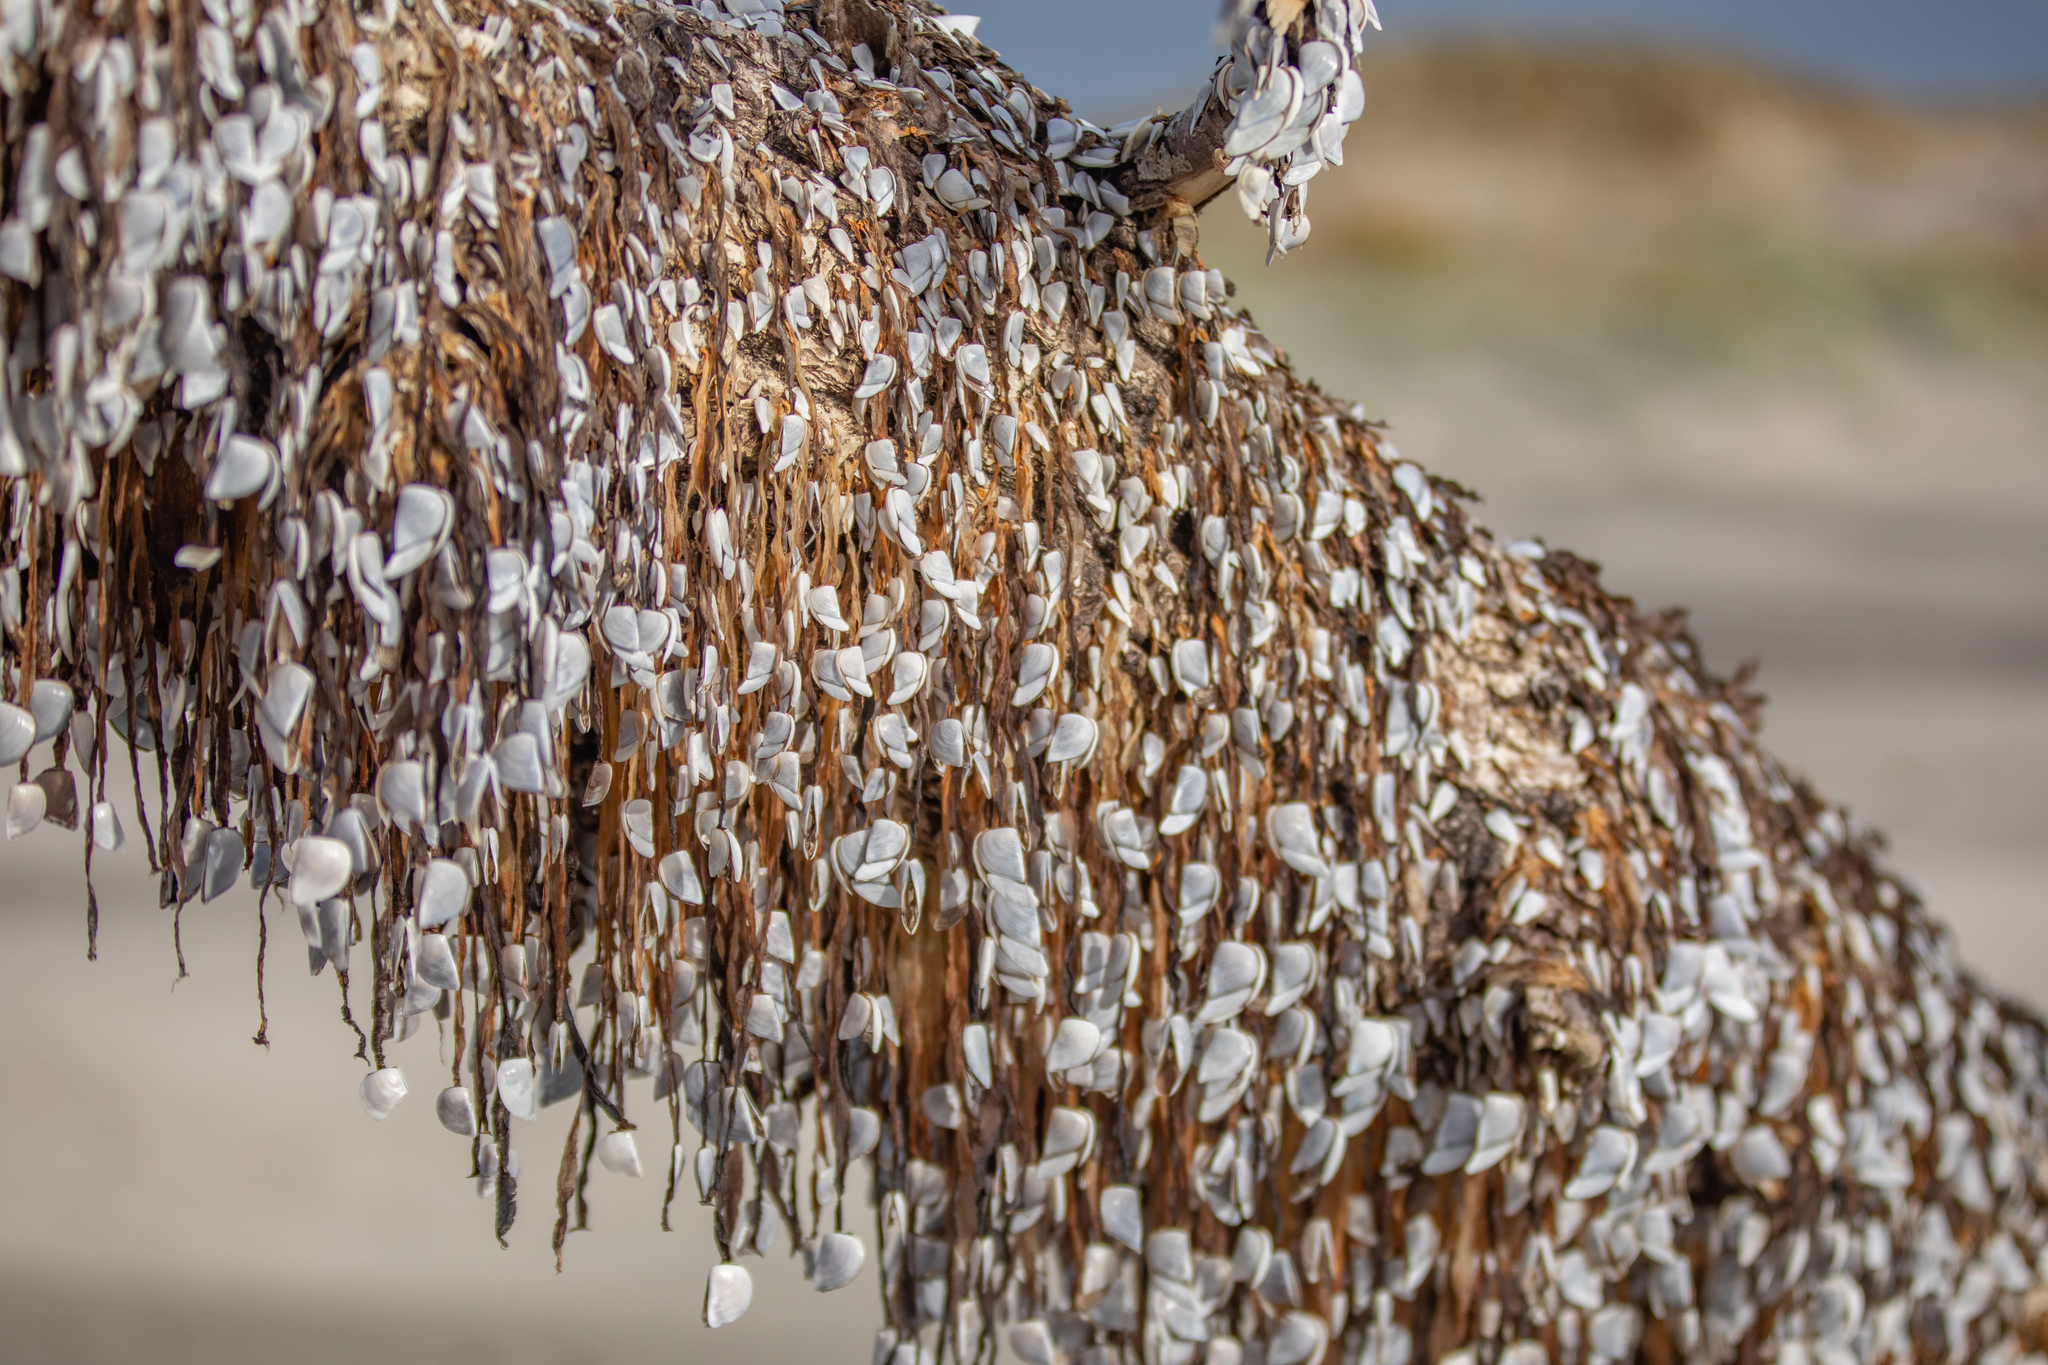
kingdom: Animalia
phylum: Arthropoda
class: Maxillopoda
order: Pedunculata
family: Lepadidae
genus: Lepas
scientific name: Lepas testudinata
